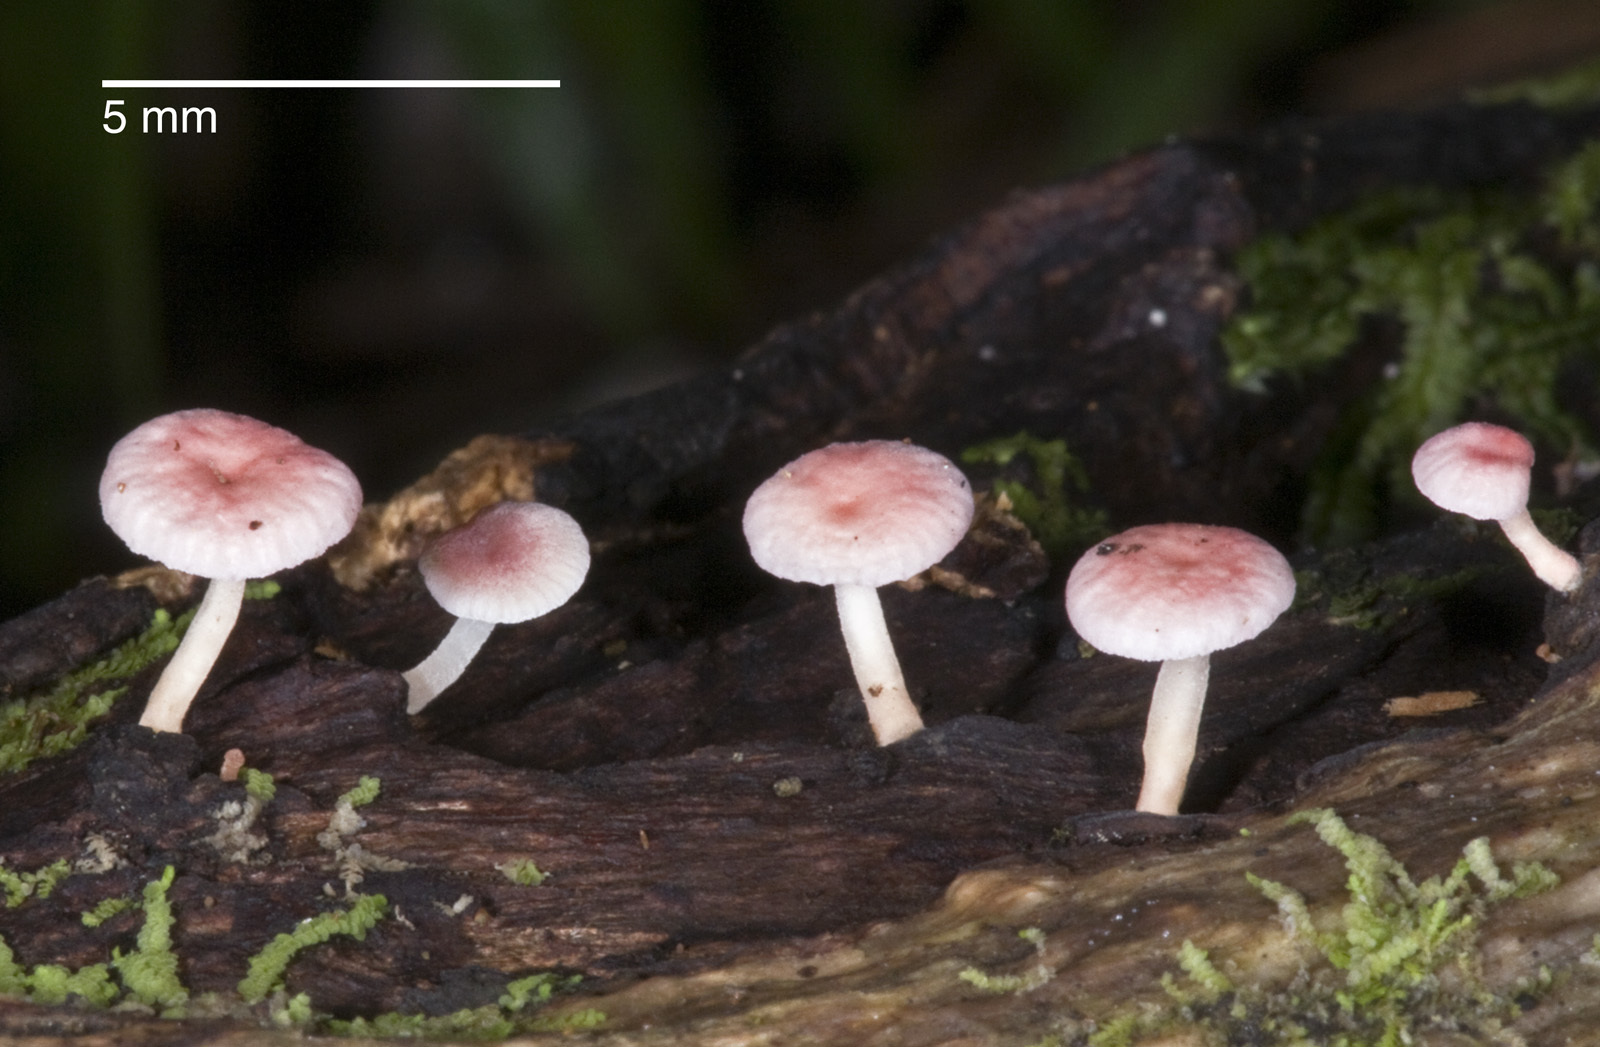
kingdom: Fungi
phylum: Basidiomycota
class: Agaricomycetes
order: Agaricales
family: Mycenaceae
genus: Mycena
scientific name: Mycena roseoflava
